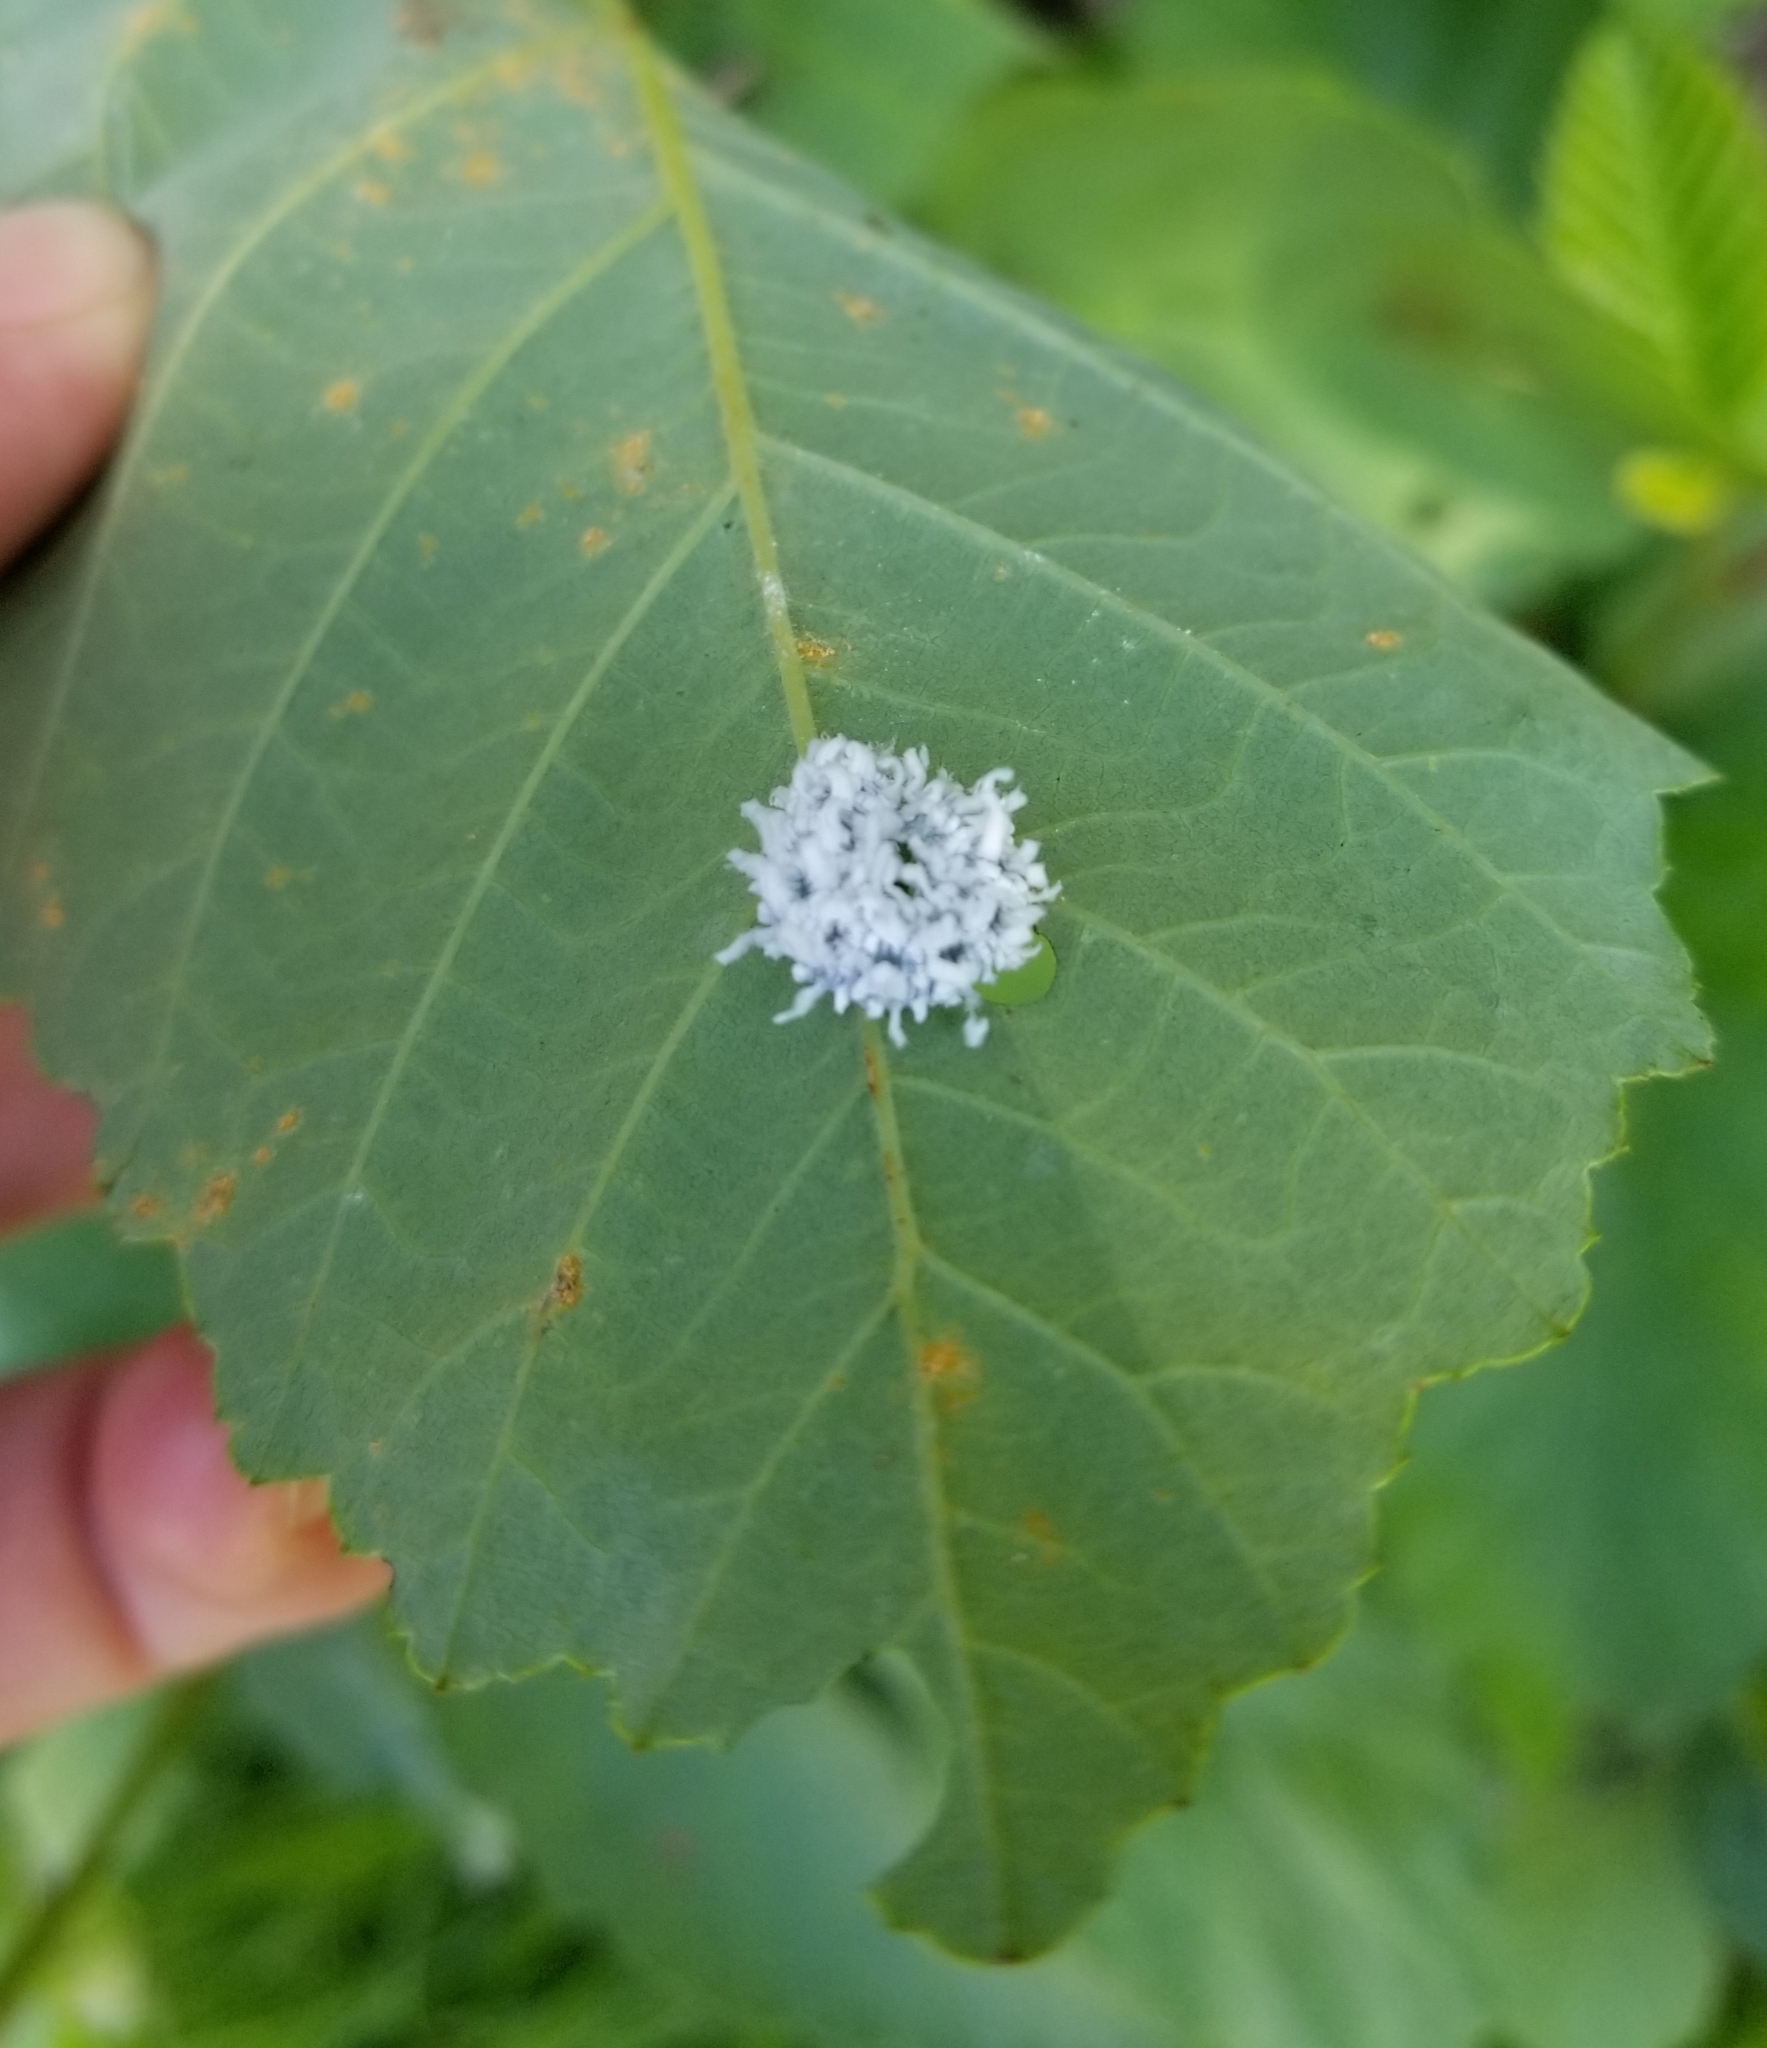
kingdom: Animalia
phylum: Arthropoda
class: Insecta
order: Hymenoptera
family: Tenthredinidae
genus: Eriocampa
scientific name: Eriocampa ovata
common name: Alder wooly sawfly
